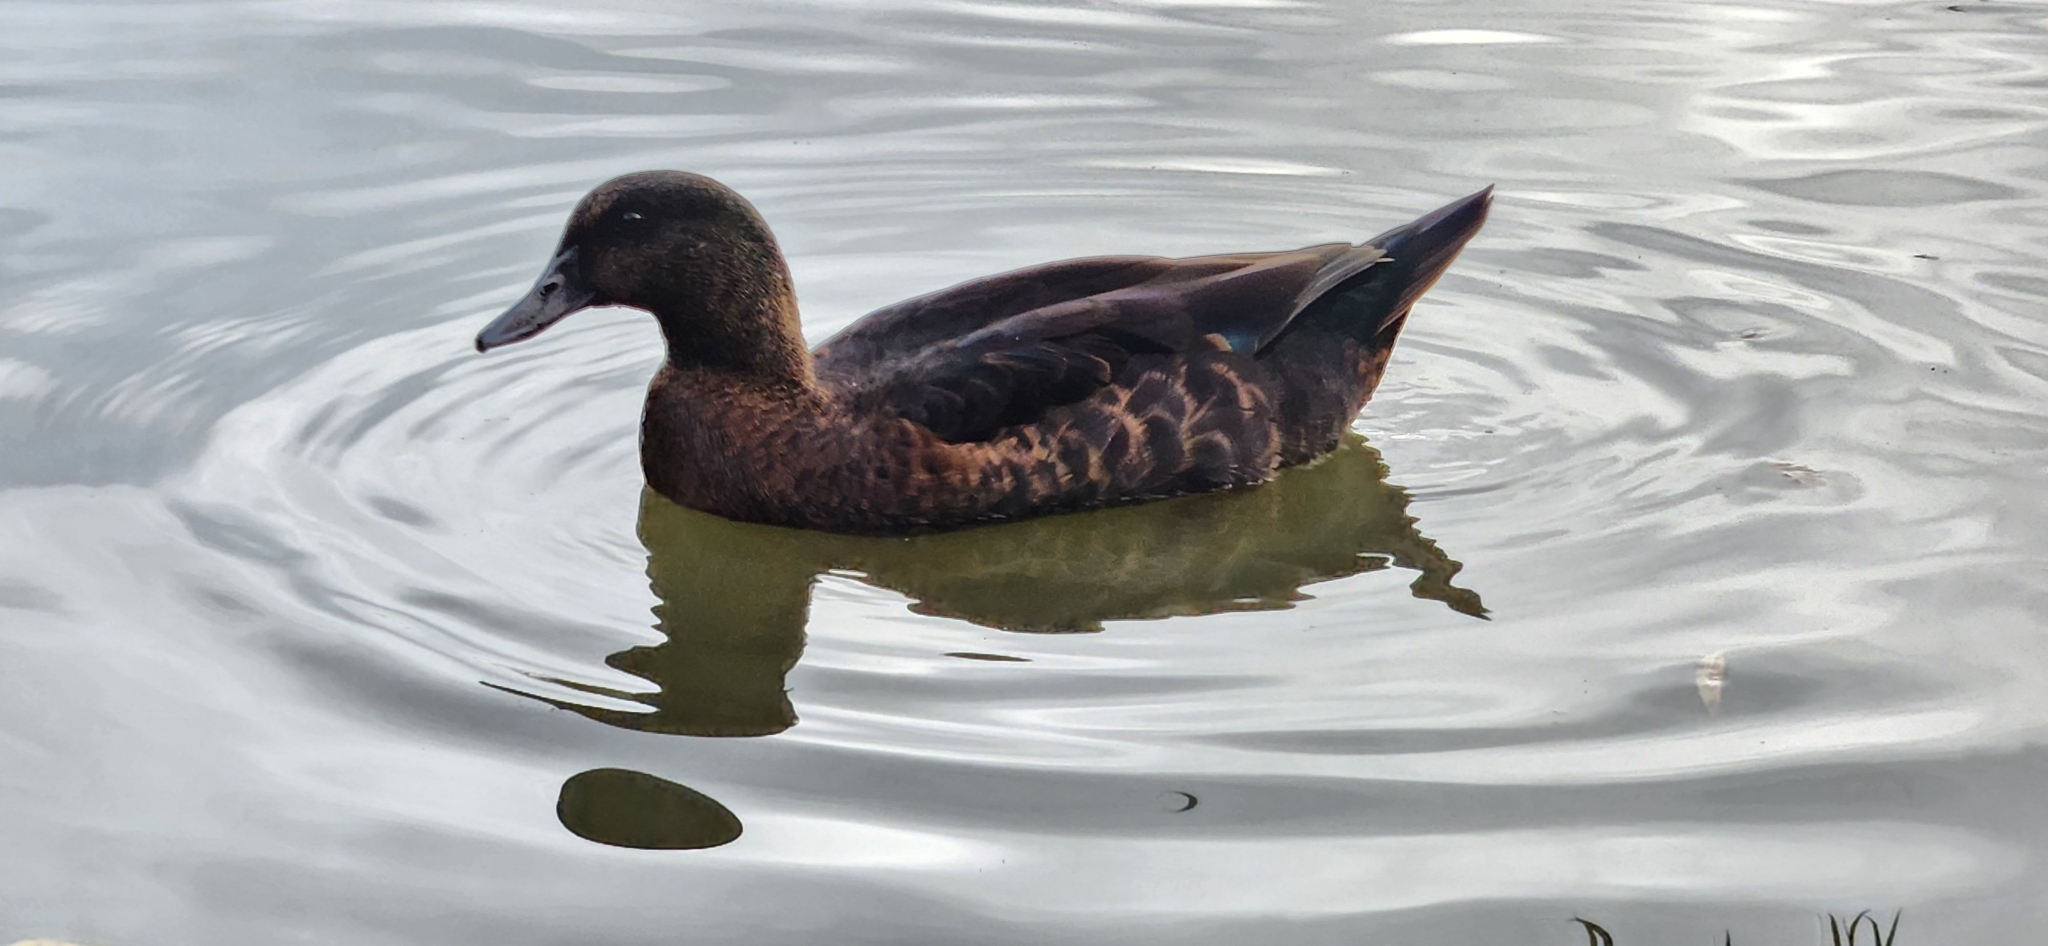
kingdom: Animalia
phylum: Chordata
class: Aves
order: Anseriformes
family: Anatidae
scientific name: Anatidae
